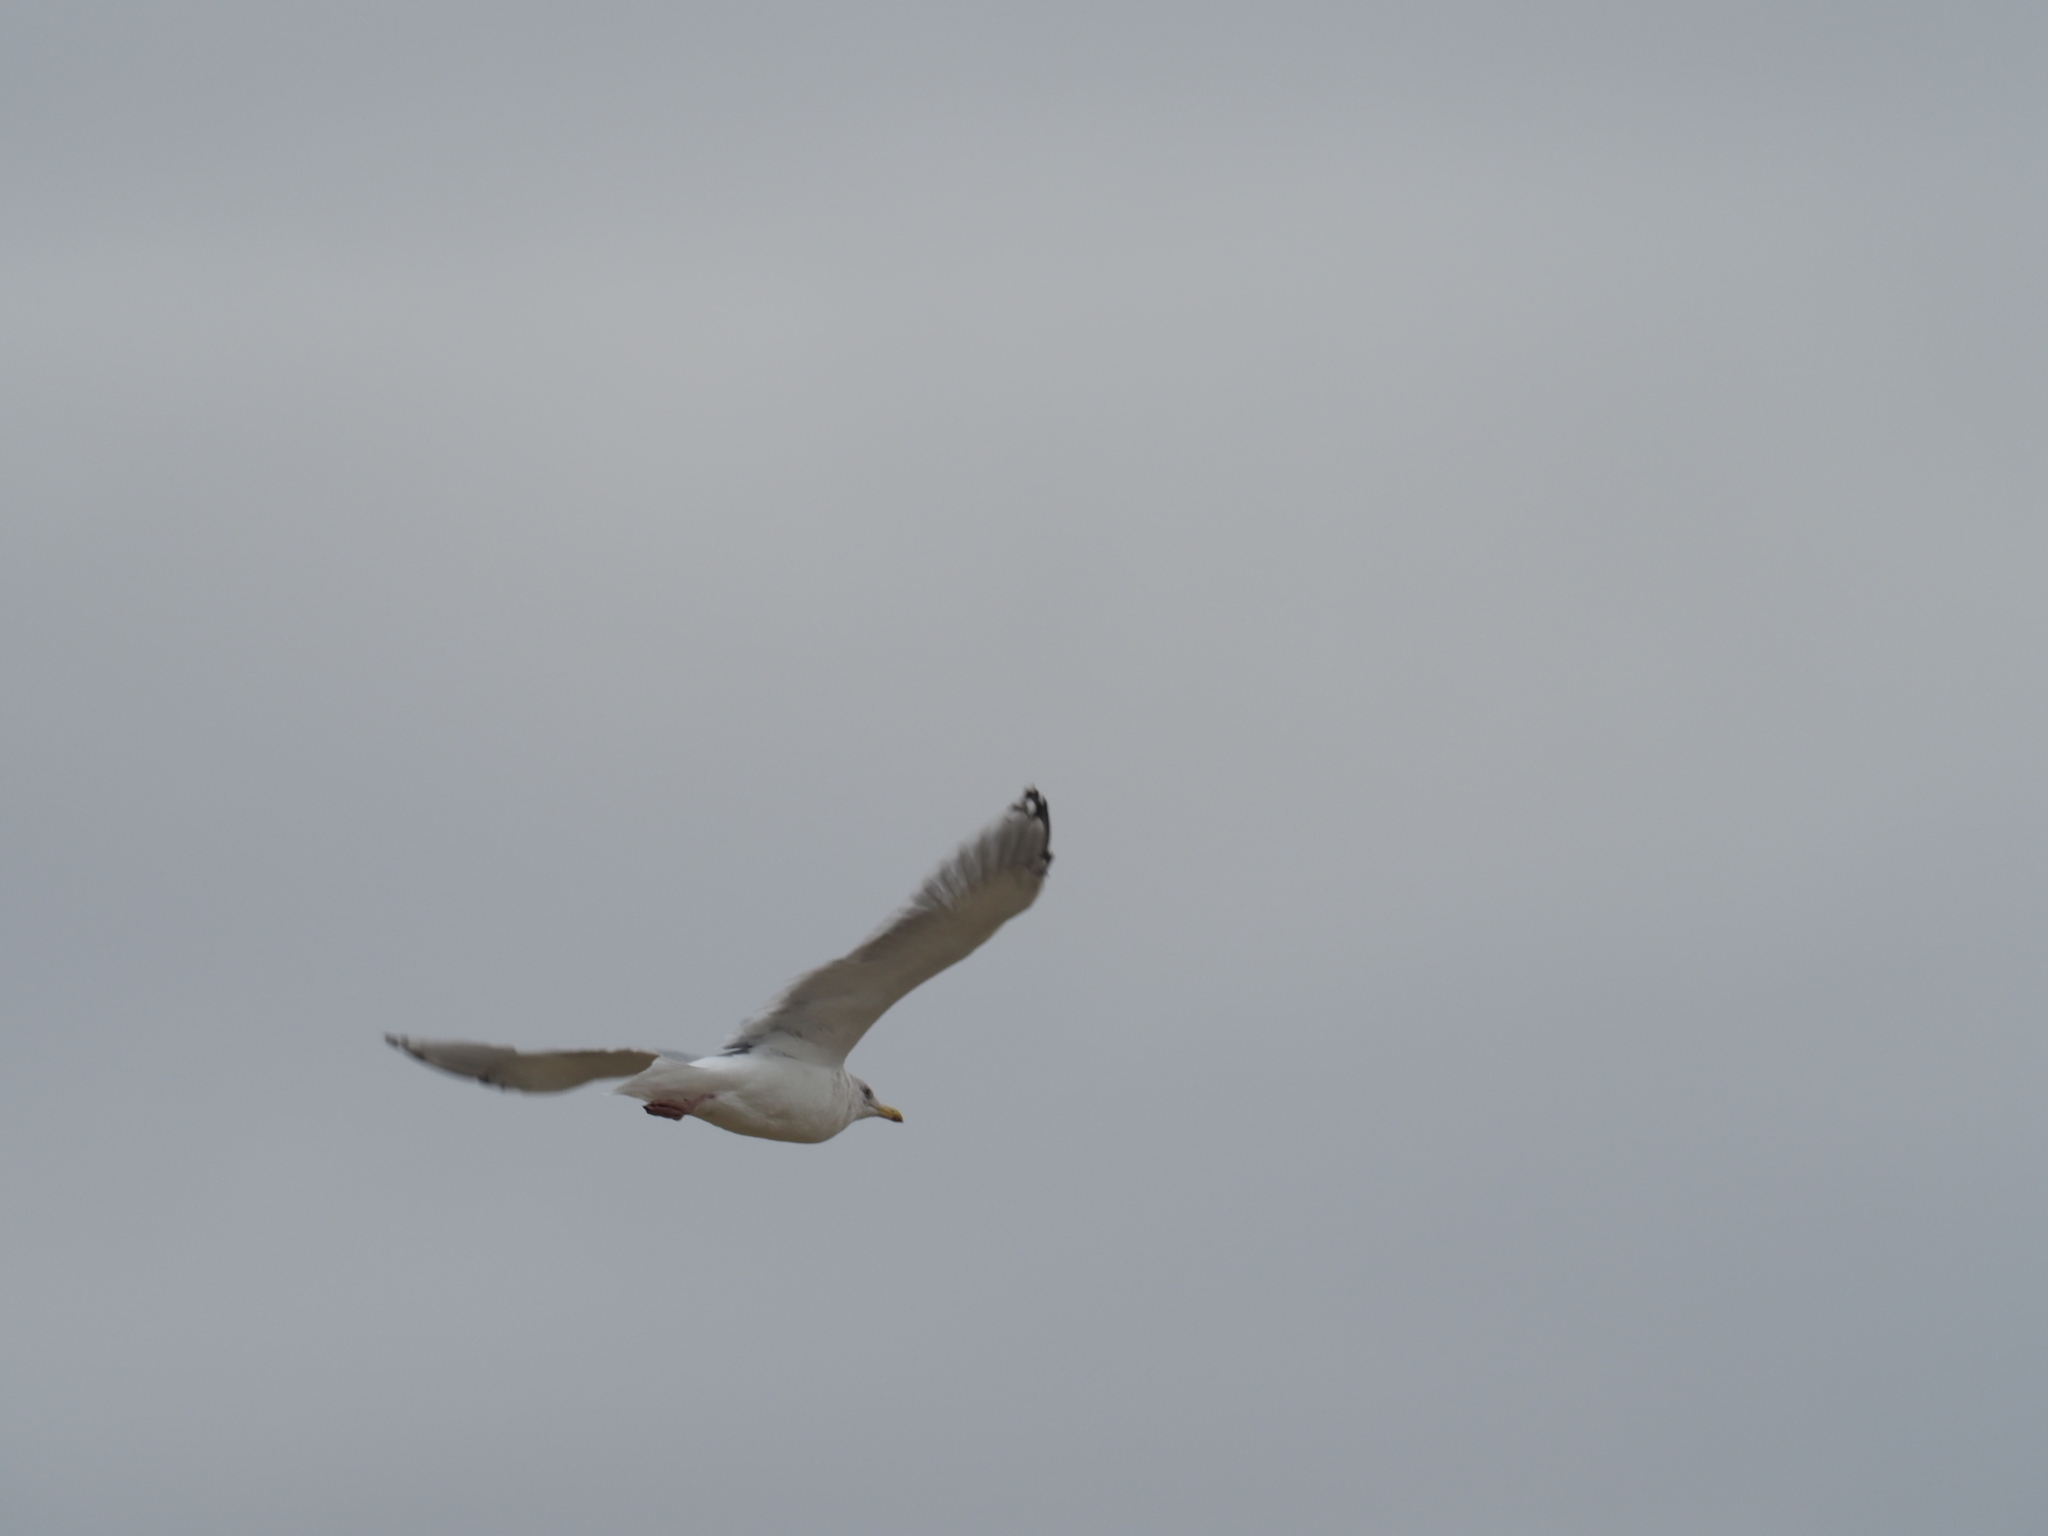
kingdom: Animalia
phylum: Chordata
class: Aves
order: Charadriiformes
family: Laridae
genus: Larus
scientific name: Larus glaucoides
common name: Iceland gull
